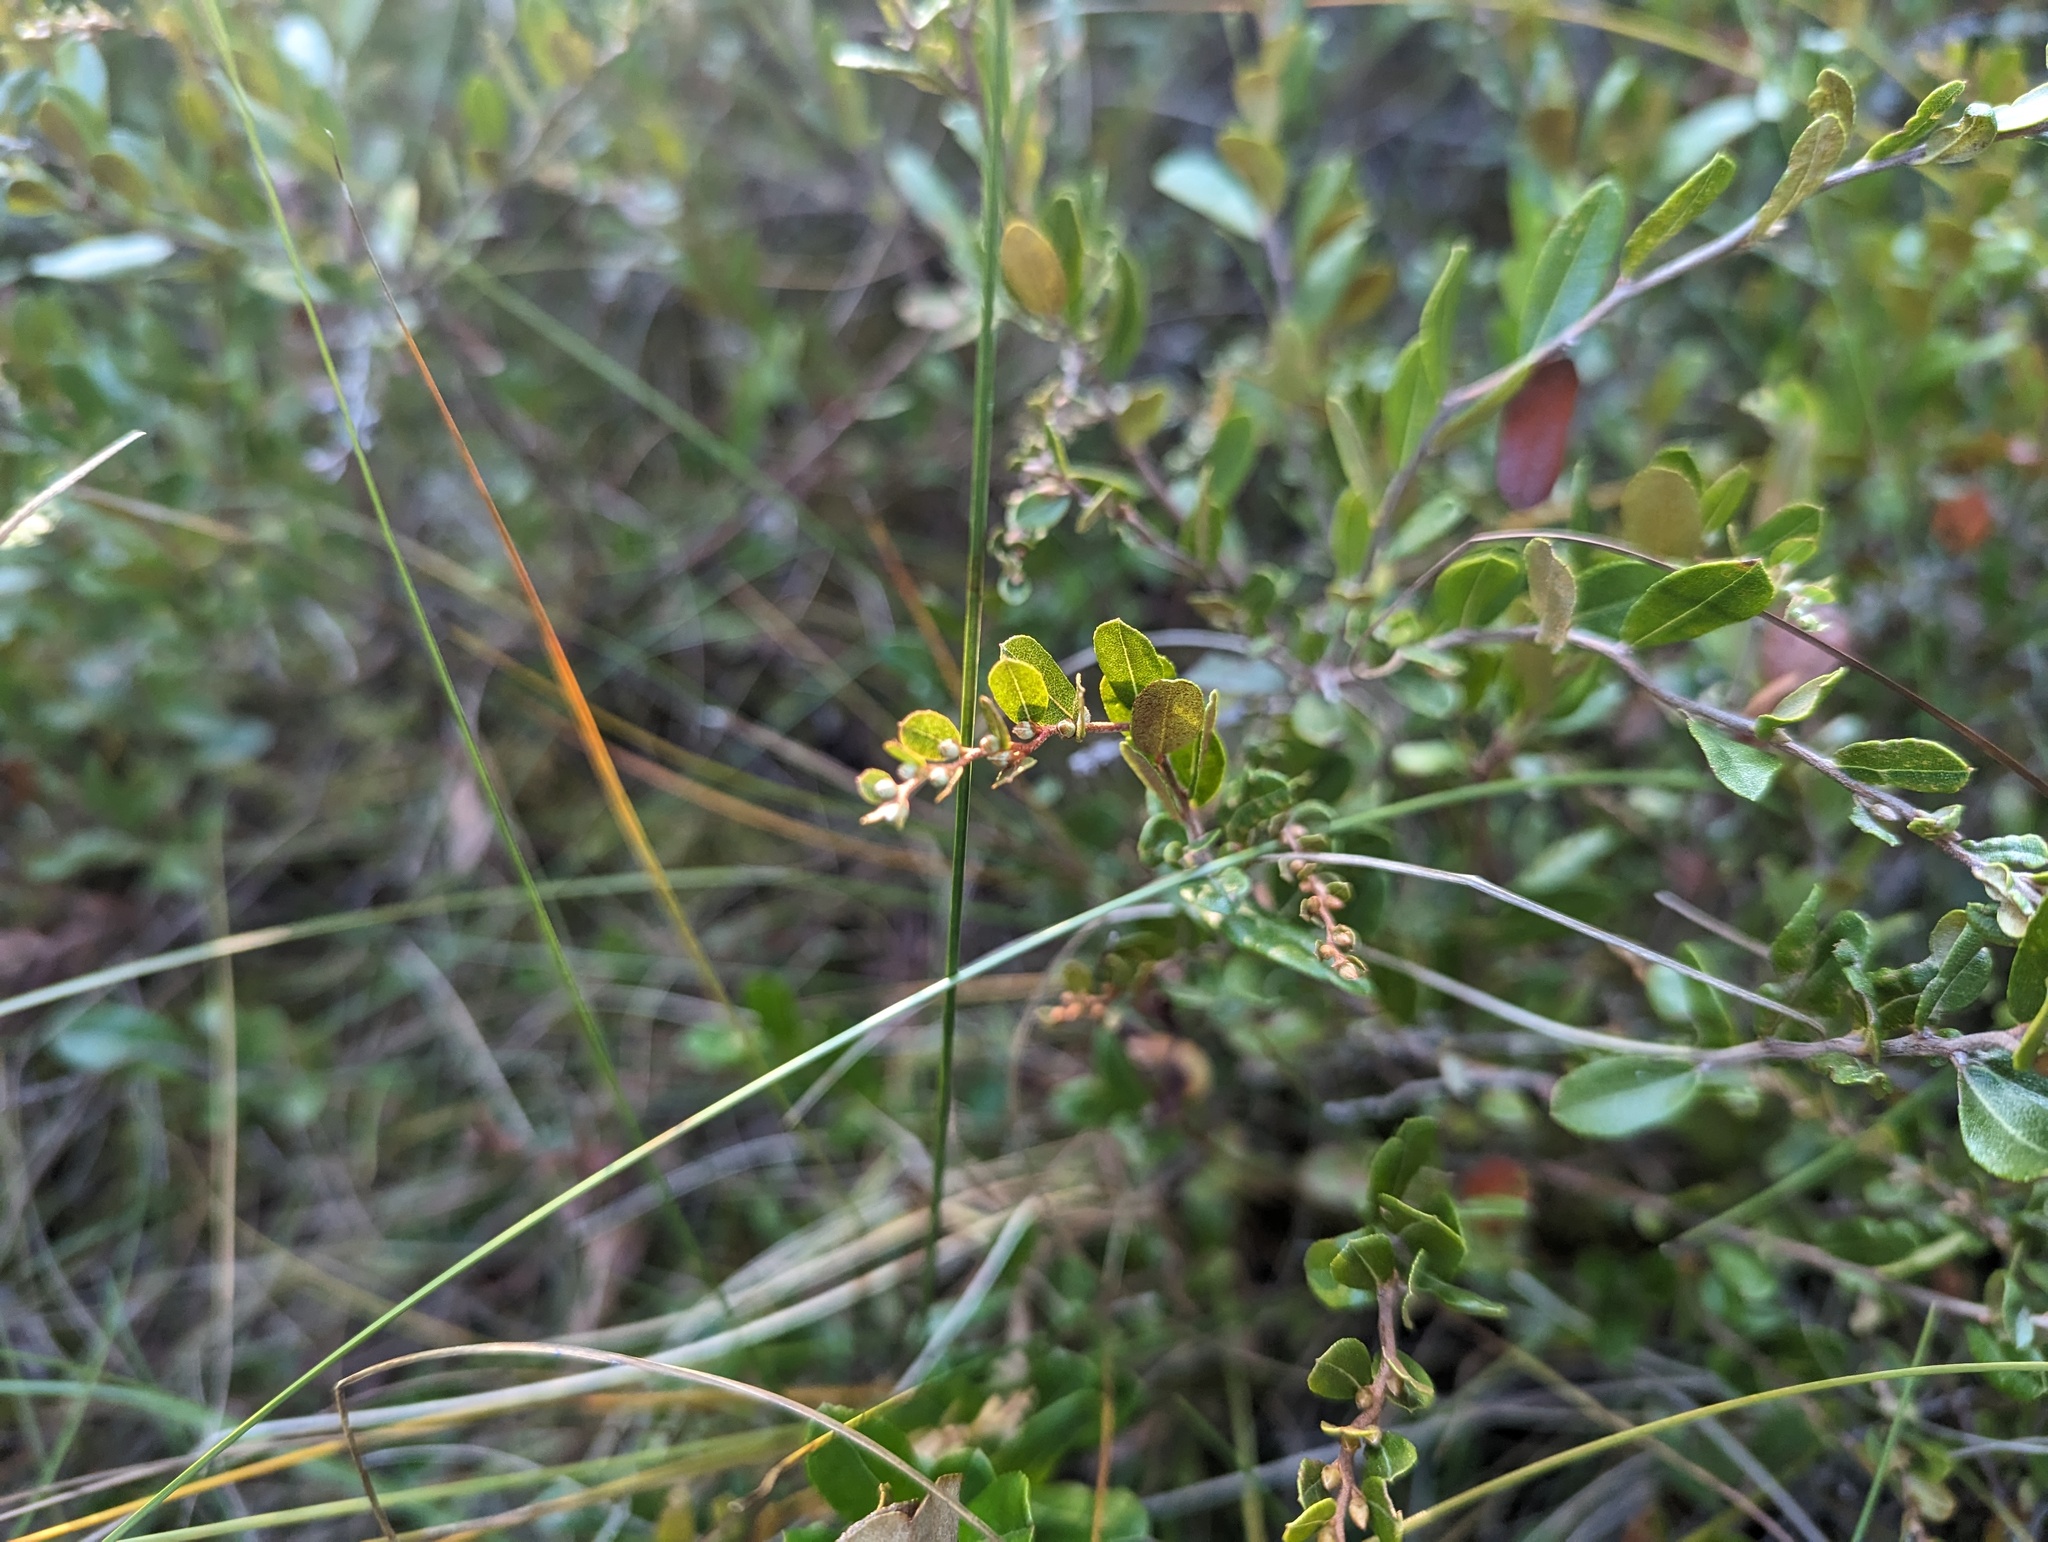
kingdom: Plantae
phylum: Tracheophyta
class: Magnoliopsida
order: Ericales
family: Ericaceae
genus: Chamaedaphne
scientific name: Chamaedaphne calyculata
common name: Leatherleaf
